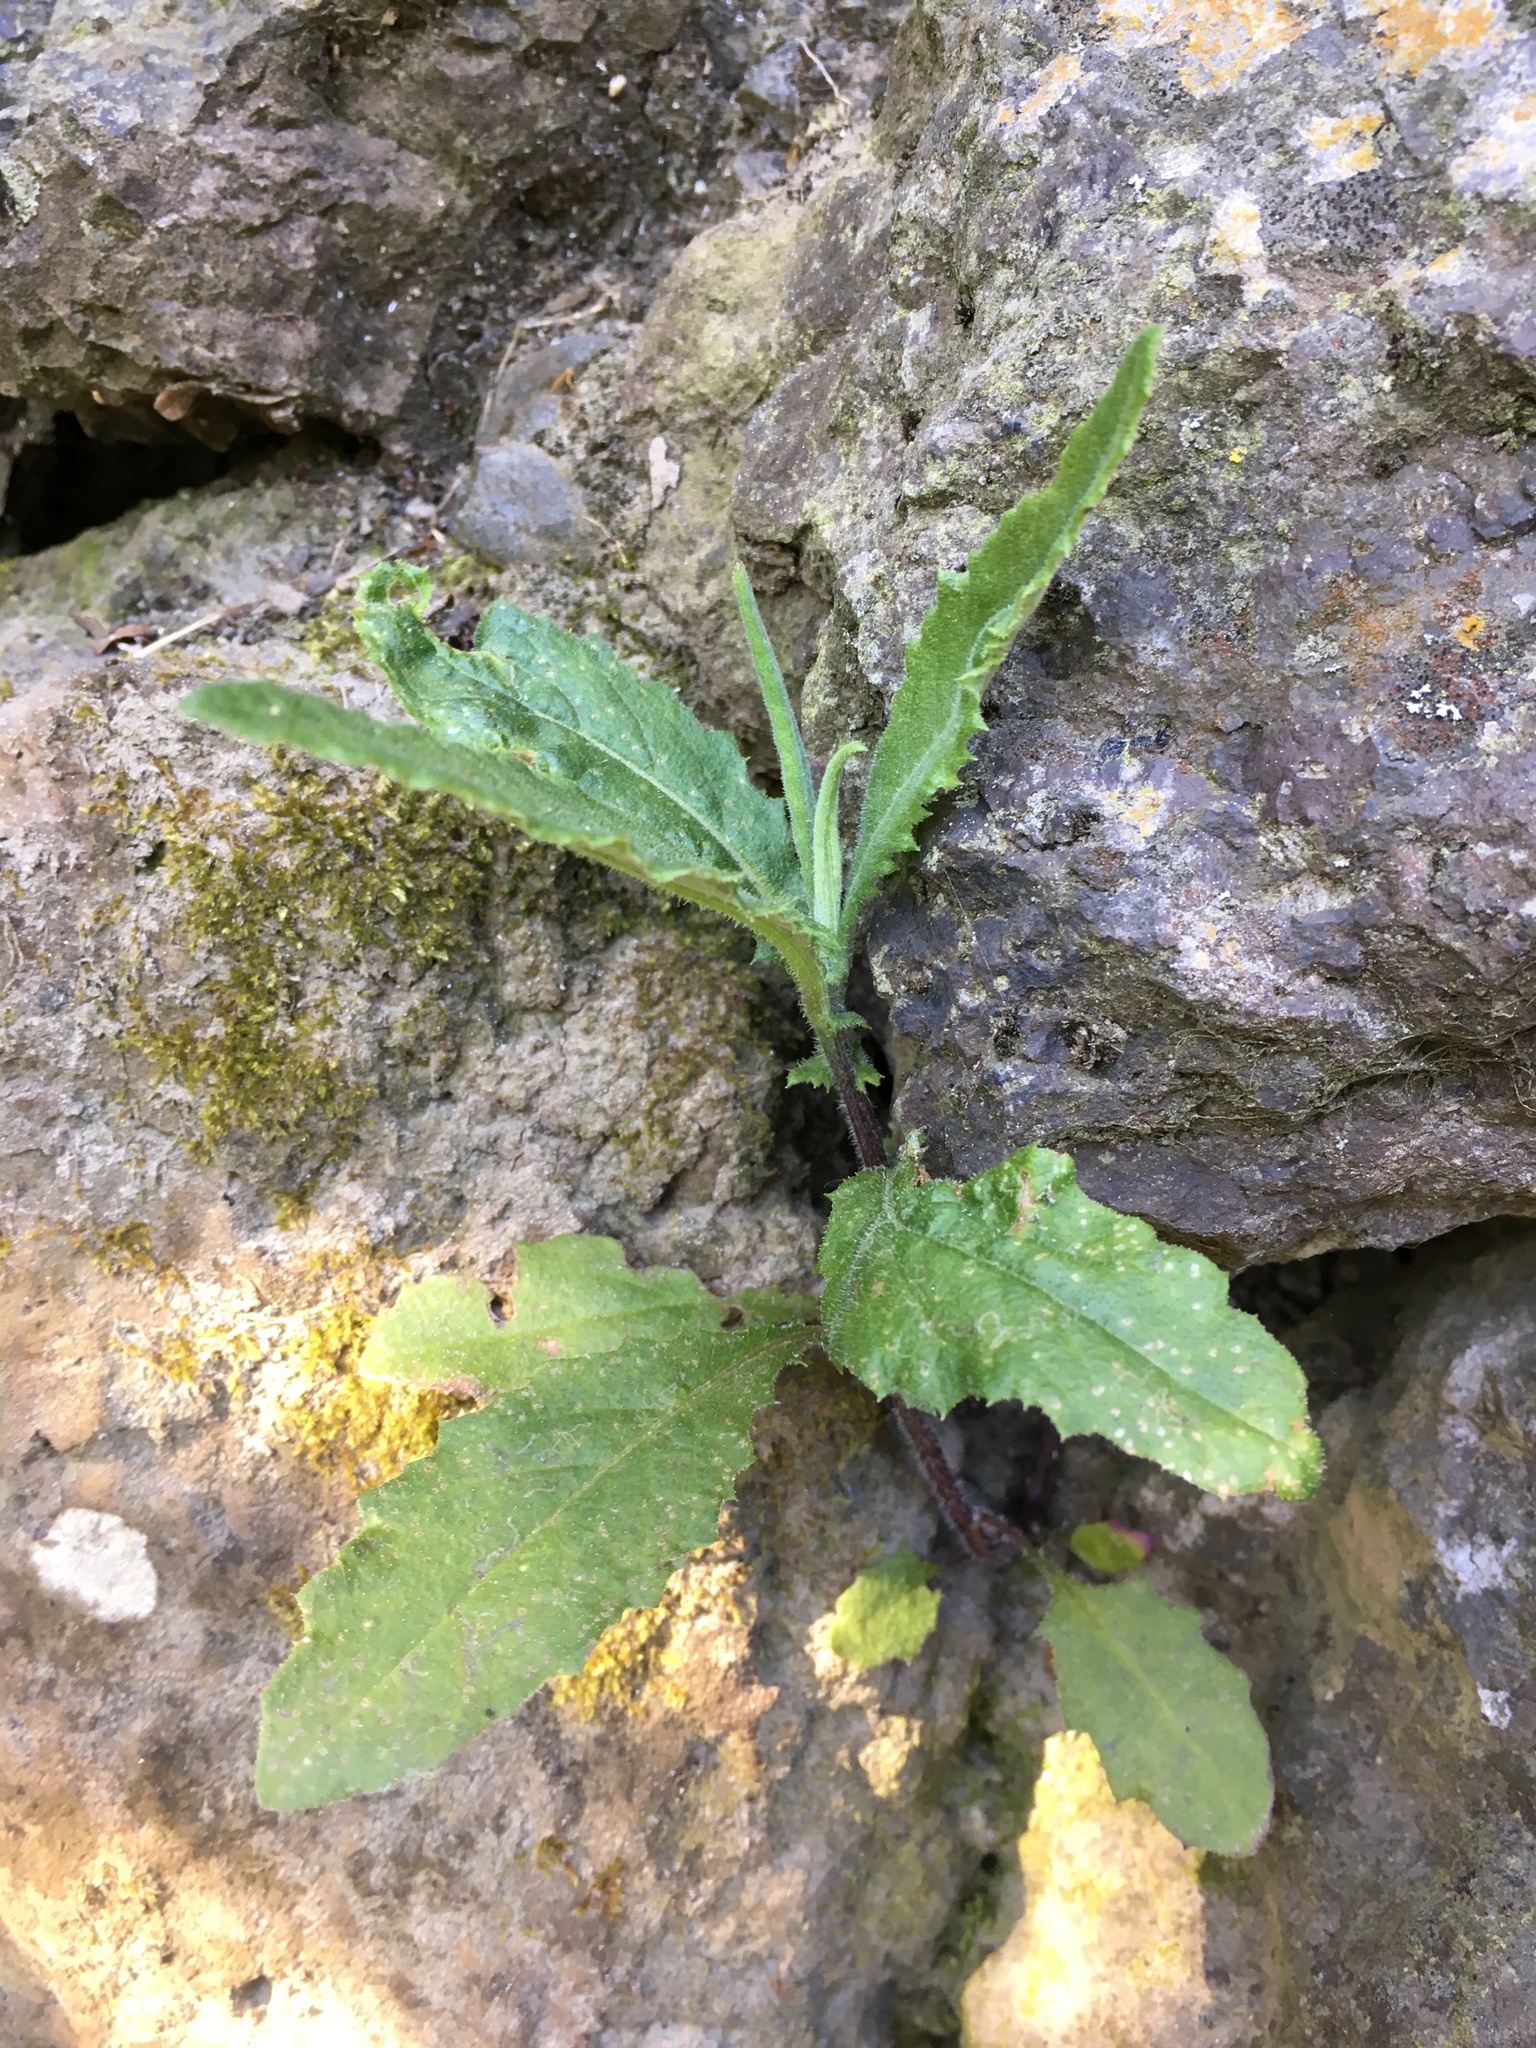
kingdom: Plantae
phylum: Tracheophyta
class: Magnoliopsida
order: Asterales
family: Asteraceae
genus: Senecio
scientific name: Senecio minimus
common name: Toothed fireweed
